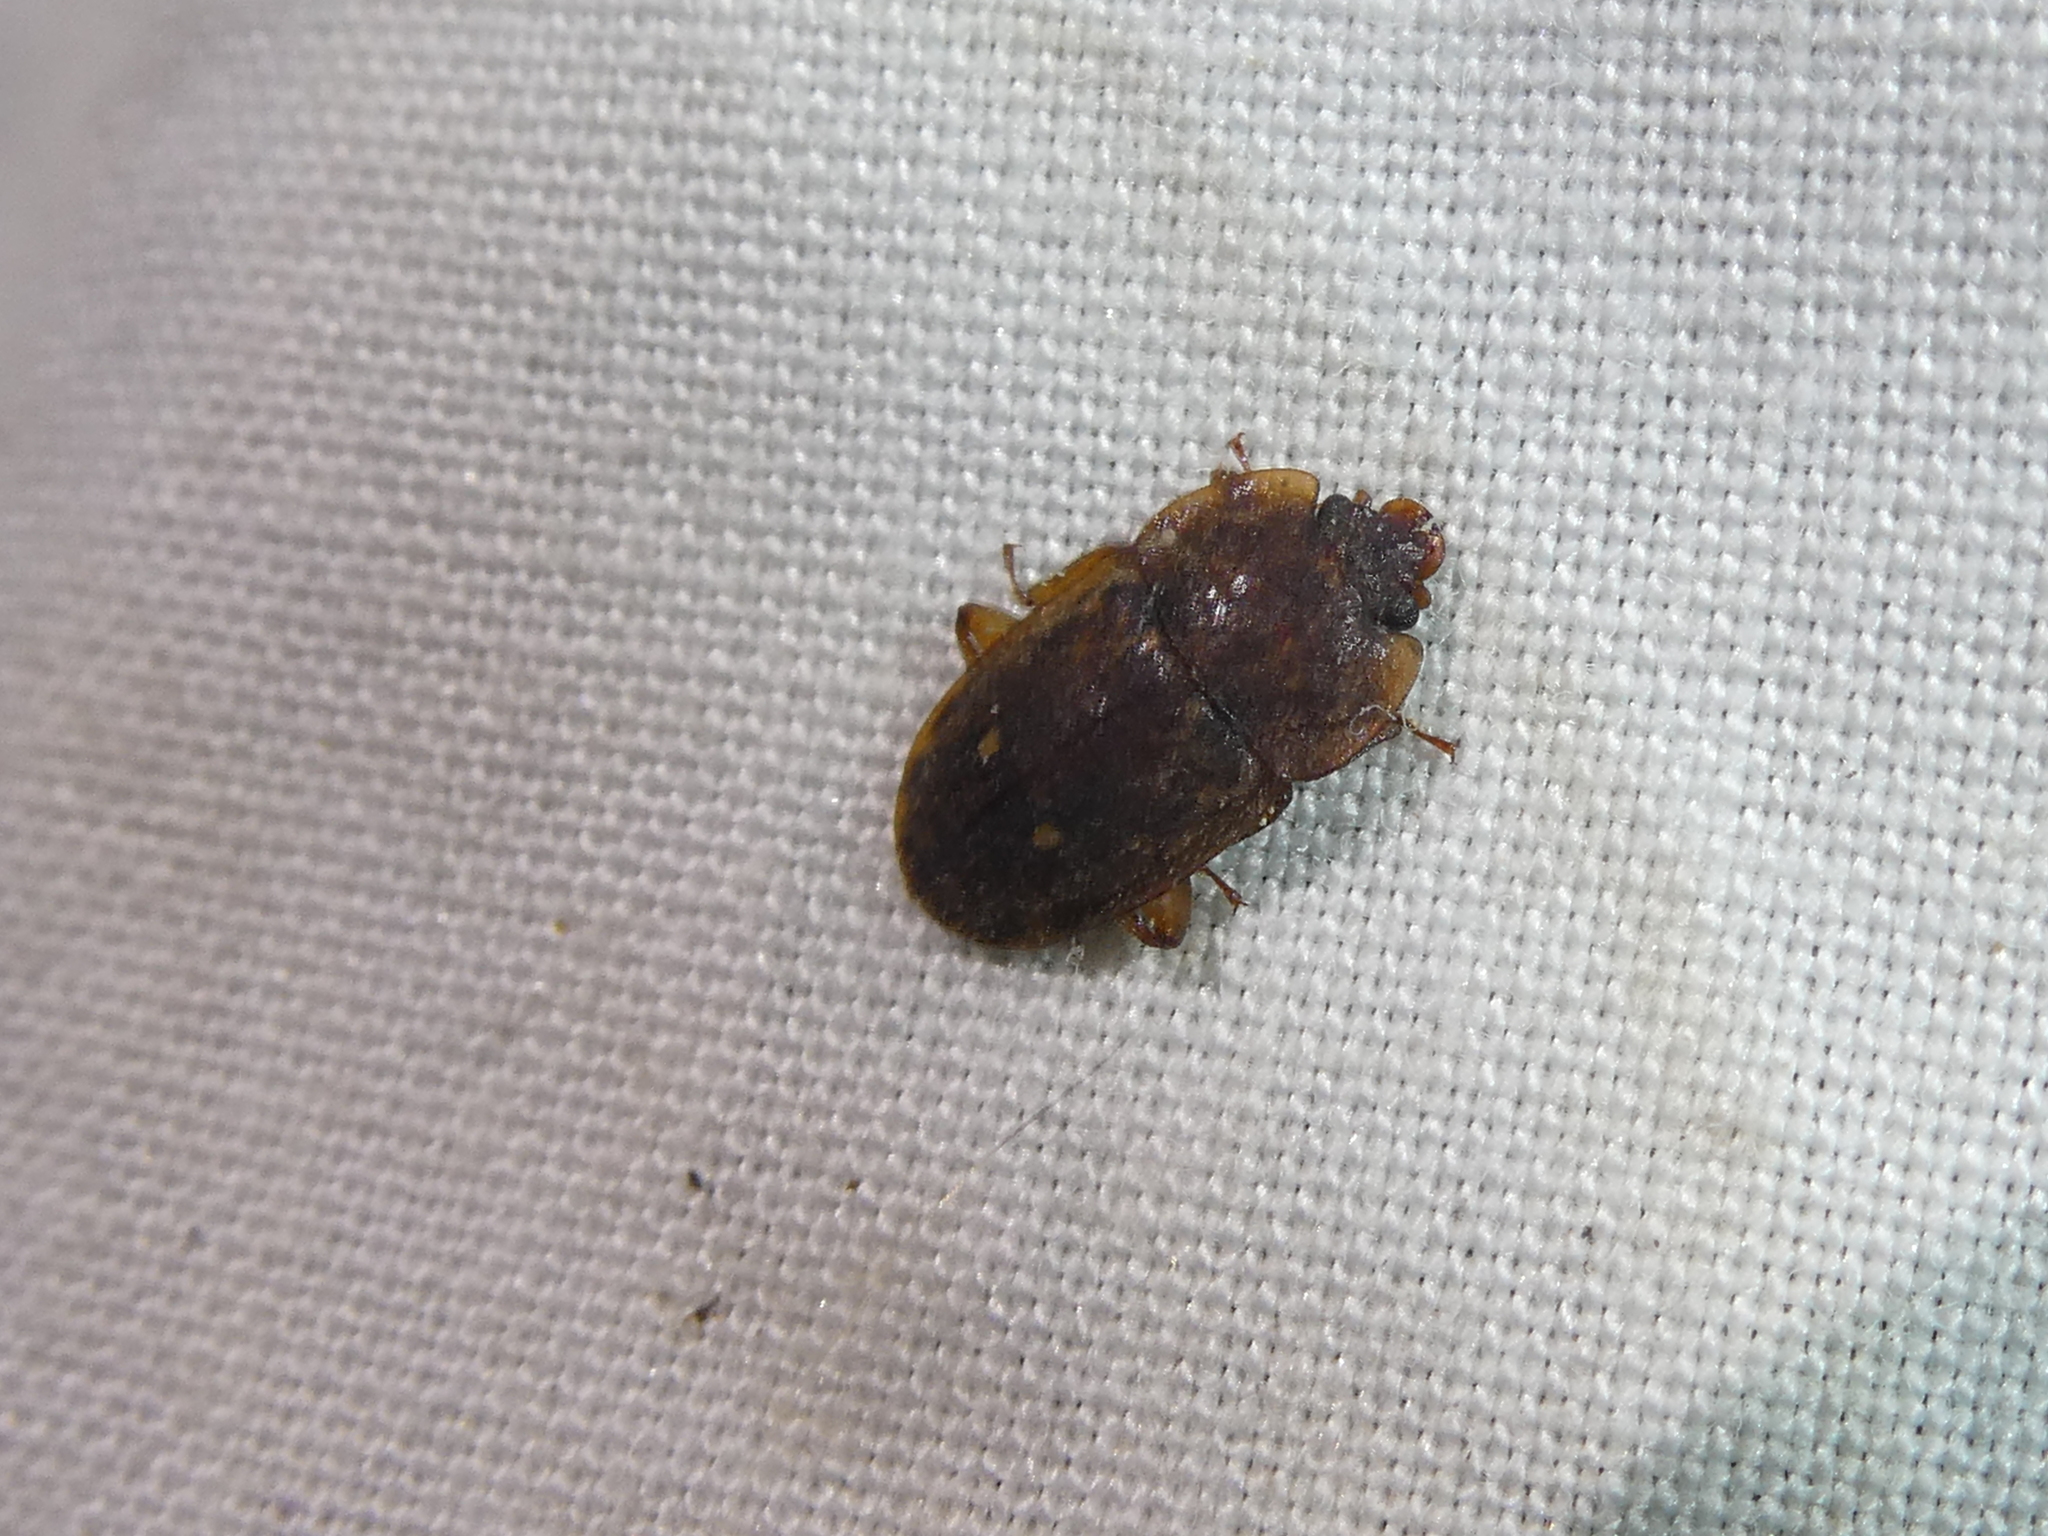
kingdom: Animalia
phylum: Arthropoda
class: Insecta
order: Coleoptera
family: Nitidulidae
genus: Soronia
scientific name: Soronia
